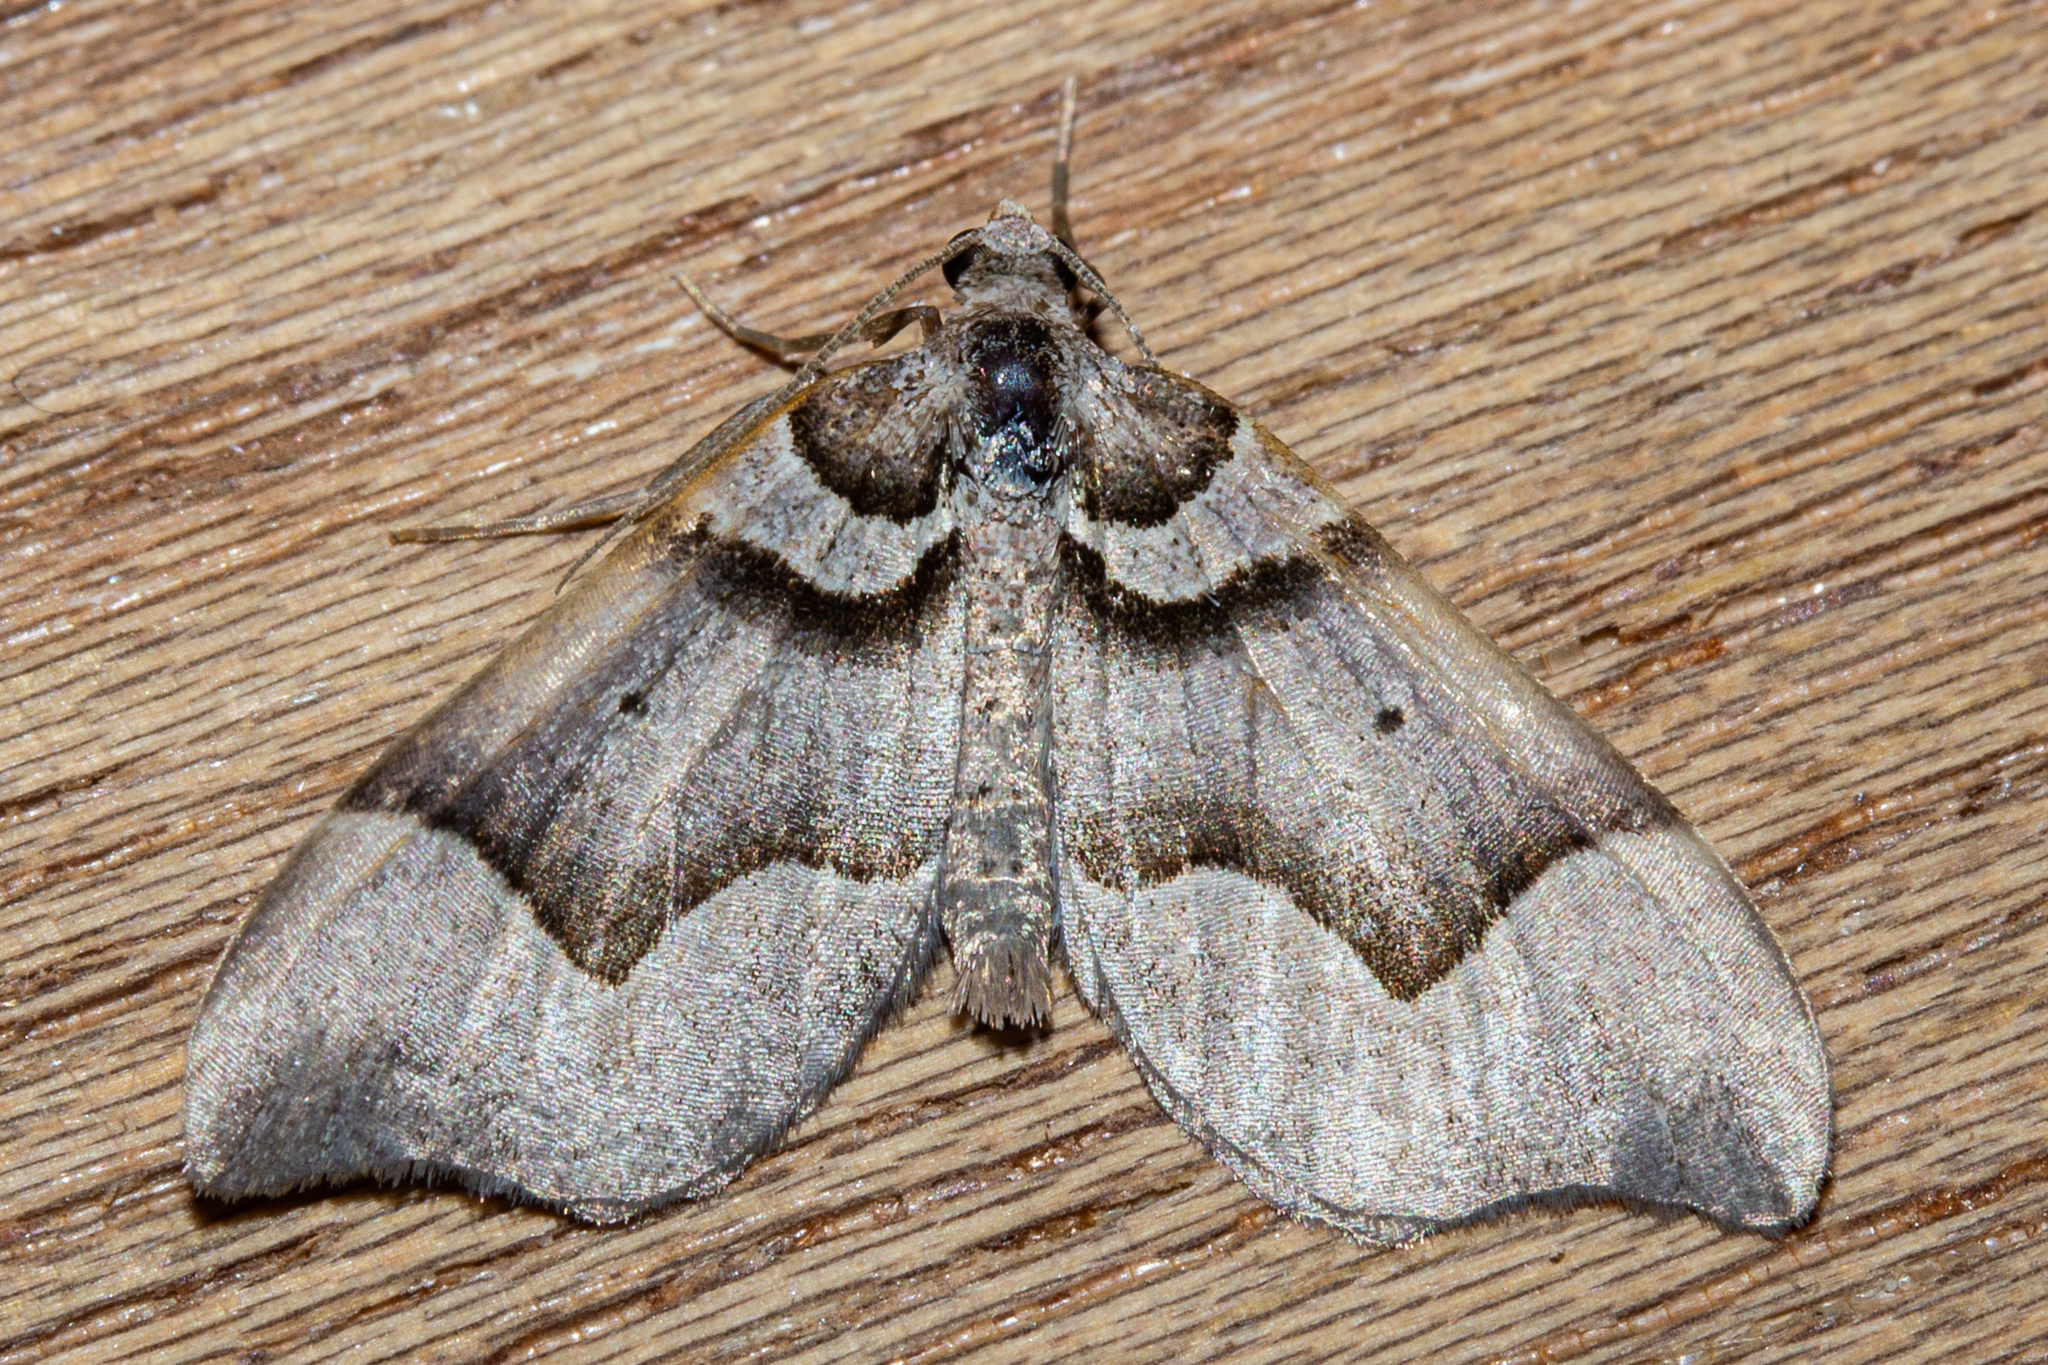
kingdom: Animalia
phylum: Arthropoda
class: Insecta
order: Lepidoptera
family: Geometridae
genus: Helastia
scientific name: Helastia triphragma
